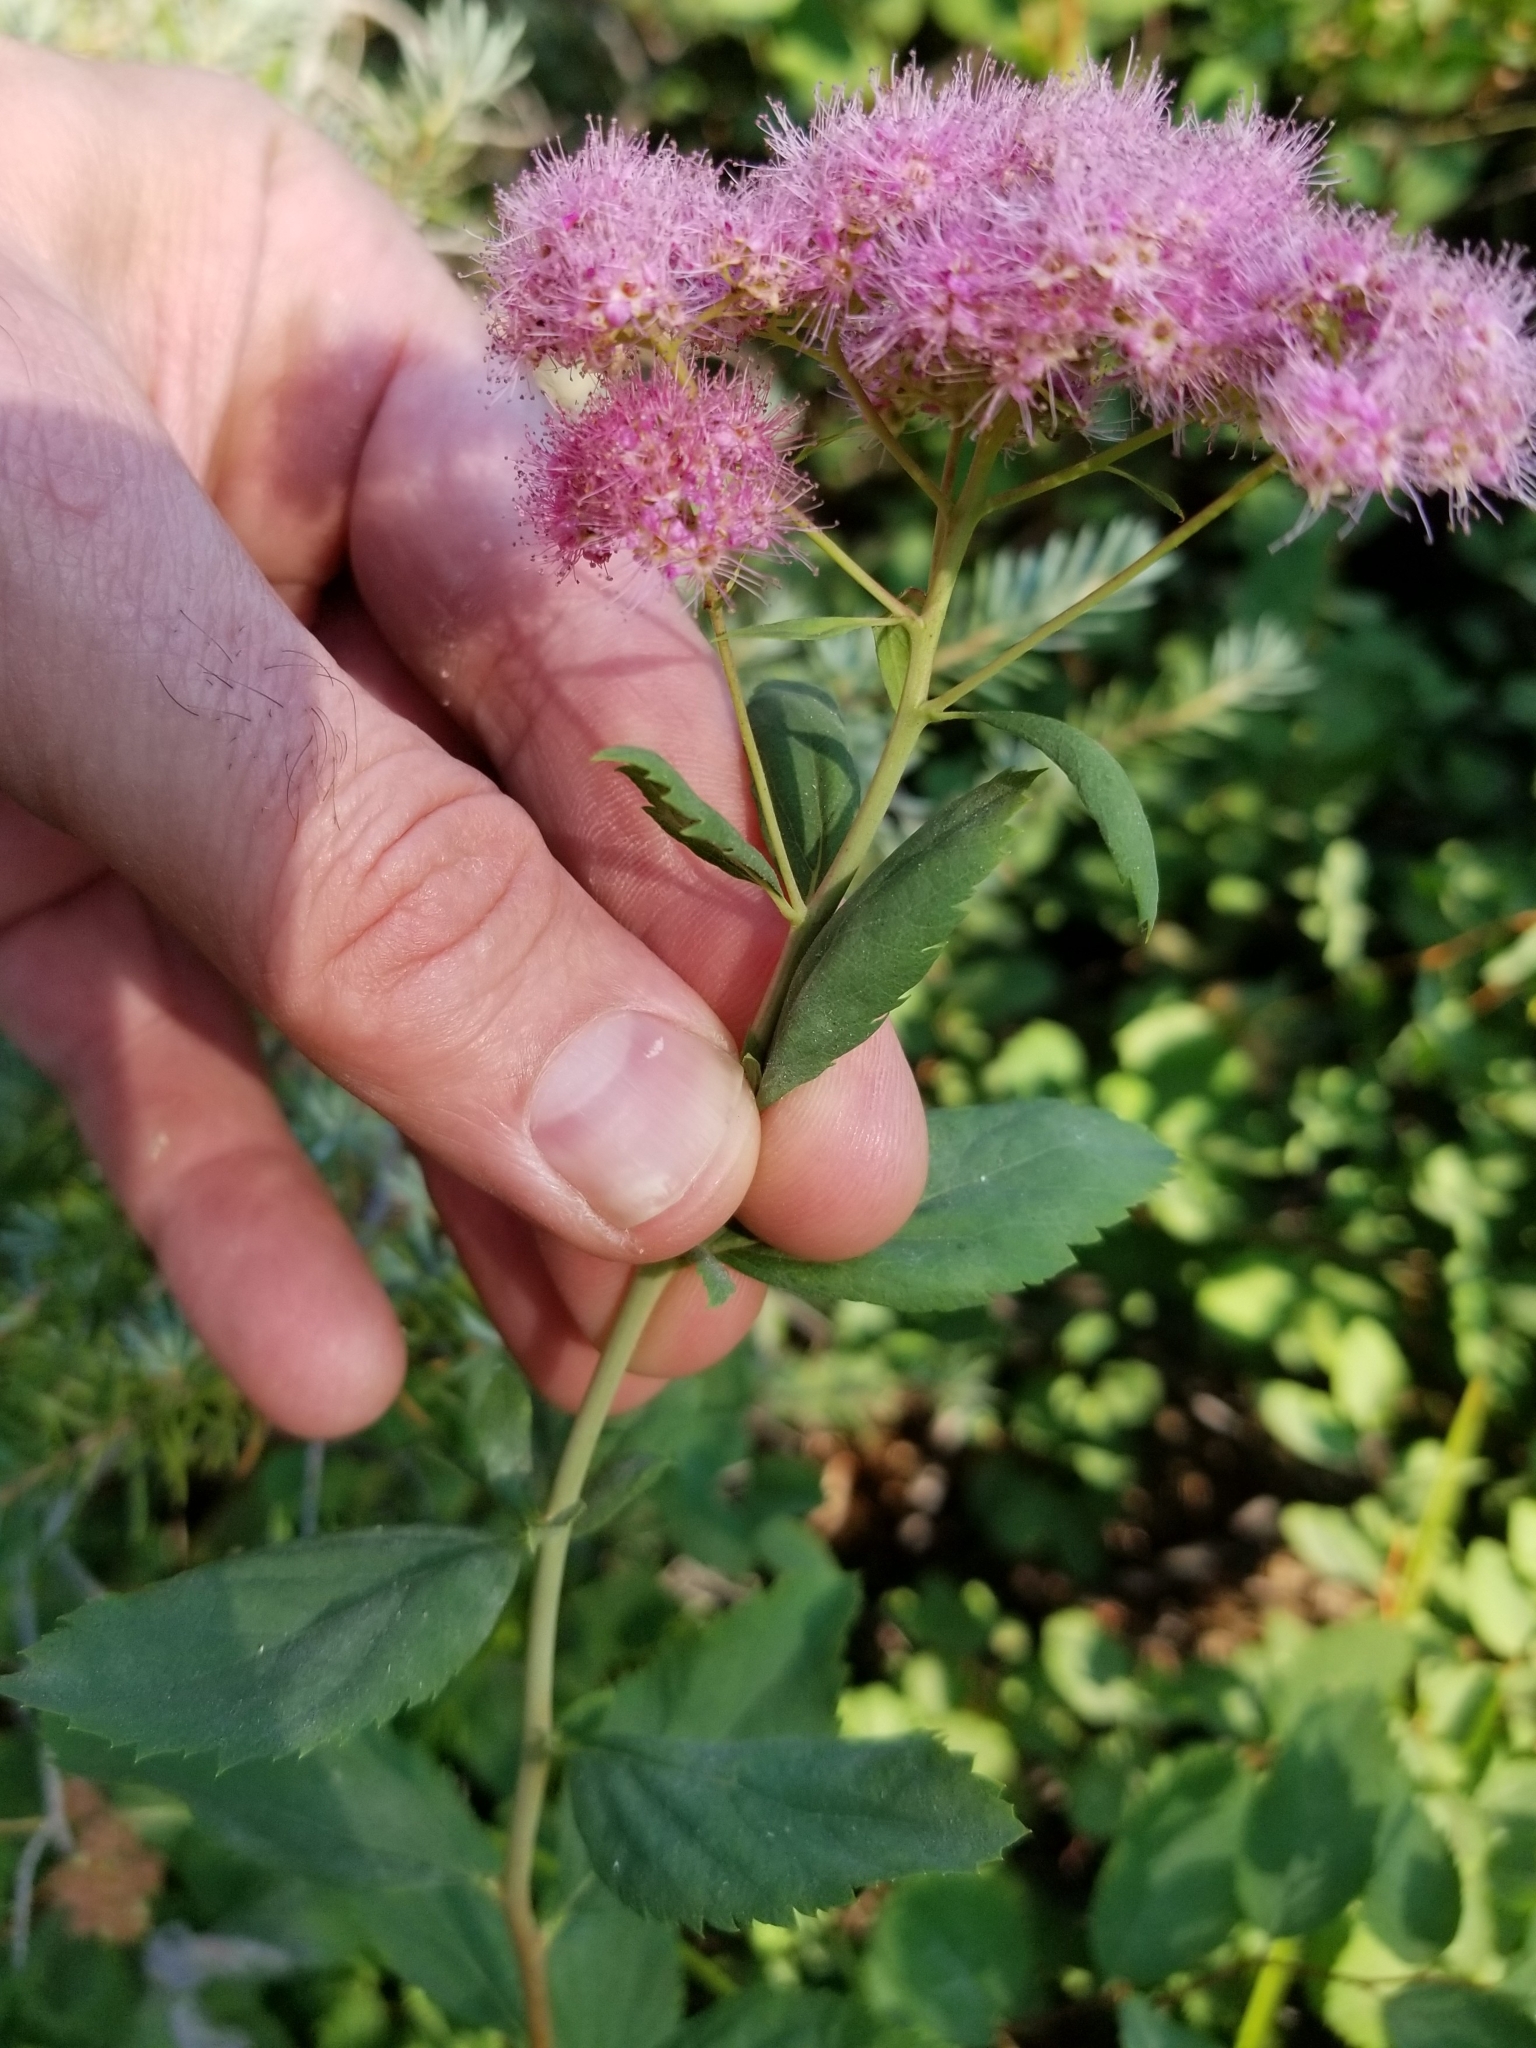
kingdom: Plantae
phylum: Tracheophyta
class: Magnoliopsida
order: Rosales
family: Rosaceae
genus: Spiraea
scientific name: Spiraea splendens
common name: Subalpine meadowsweet
